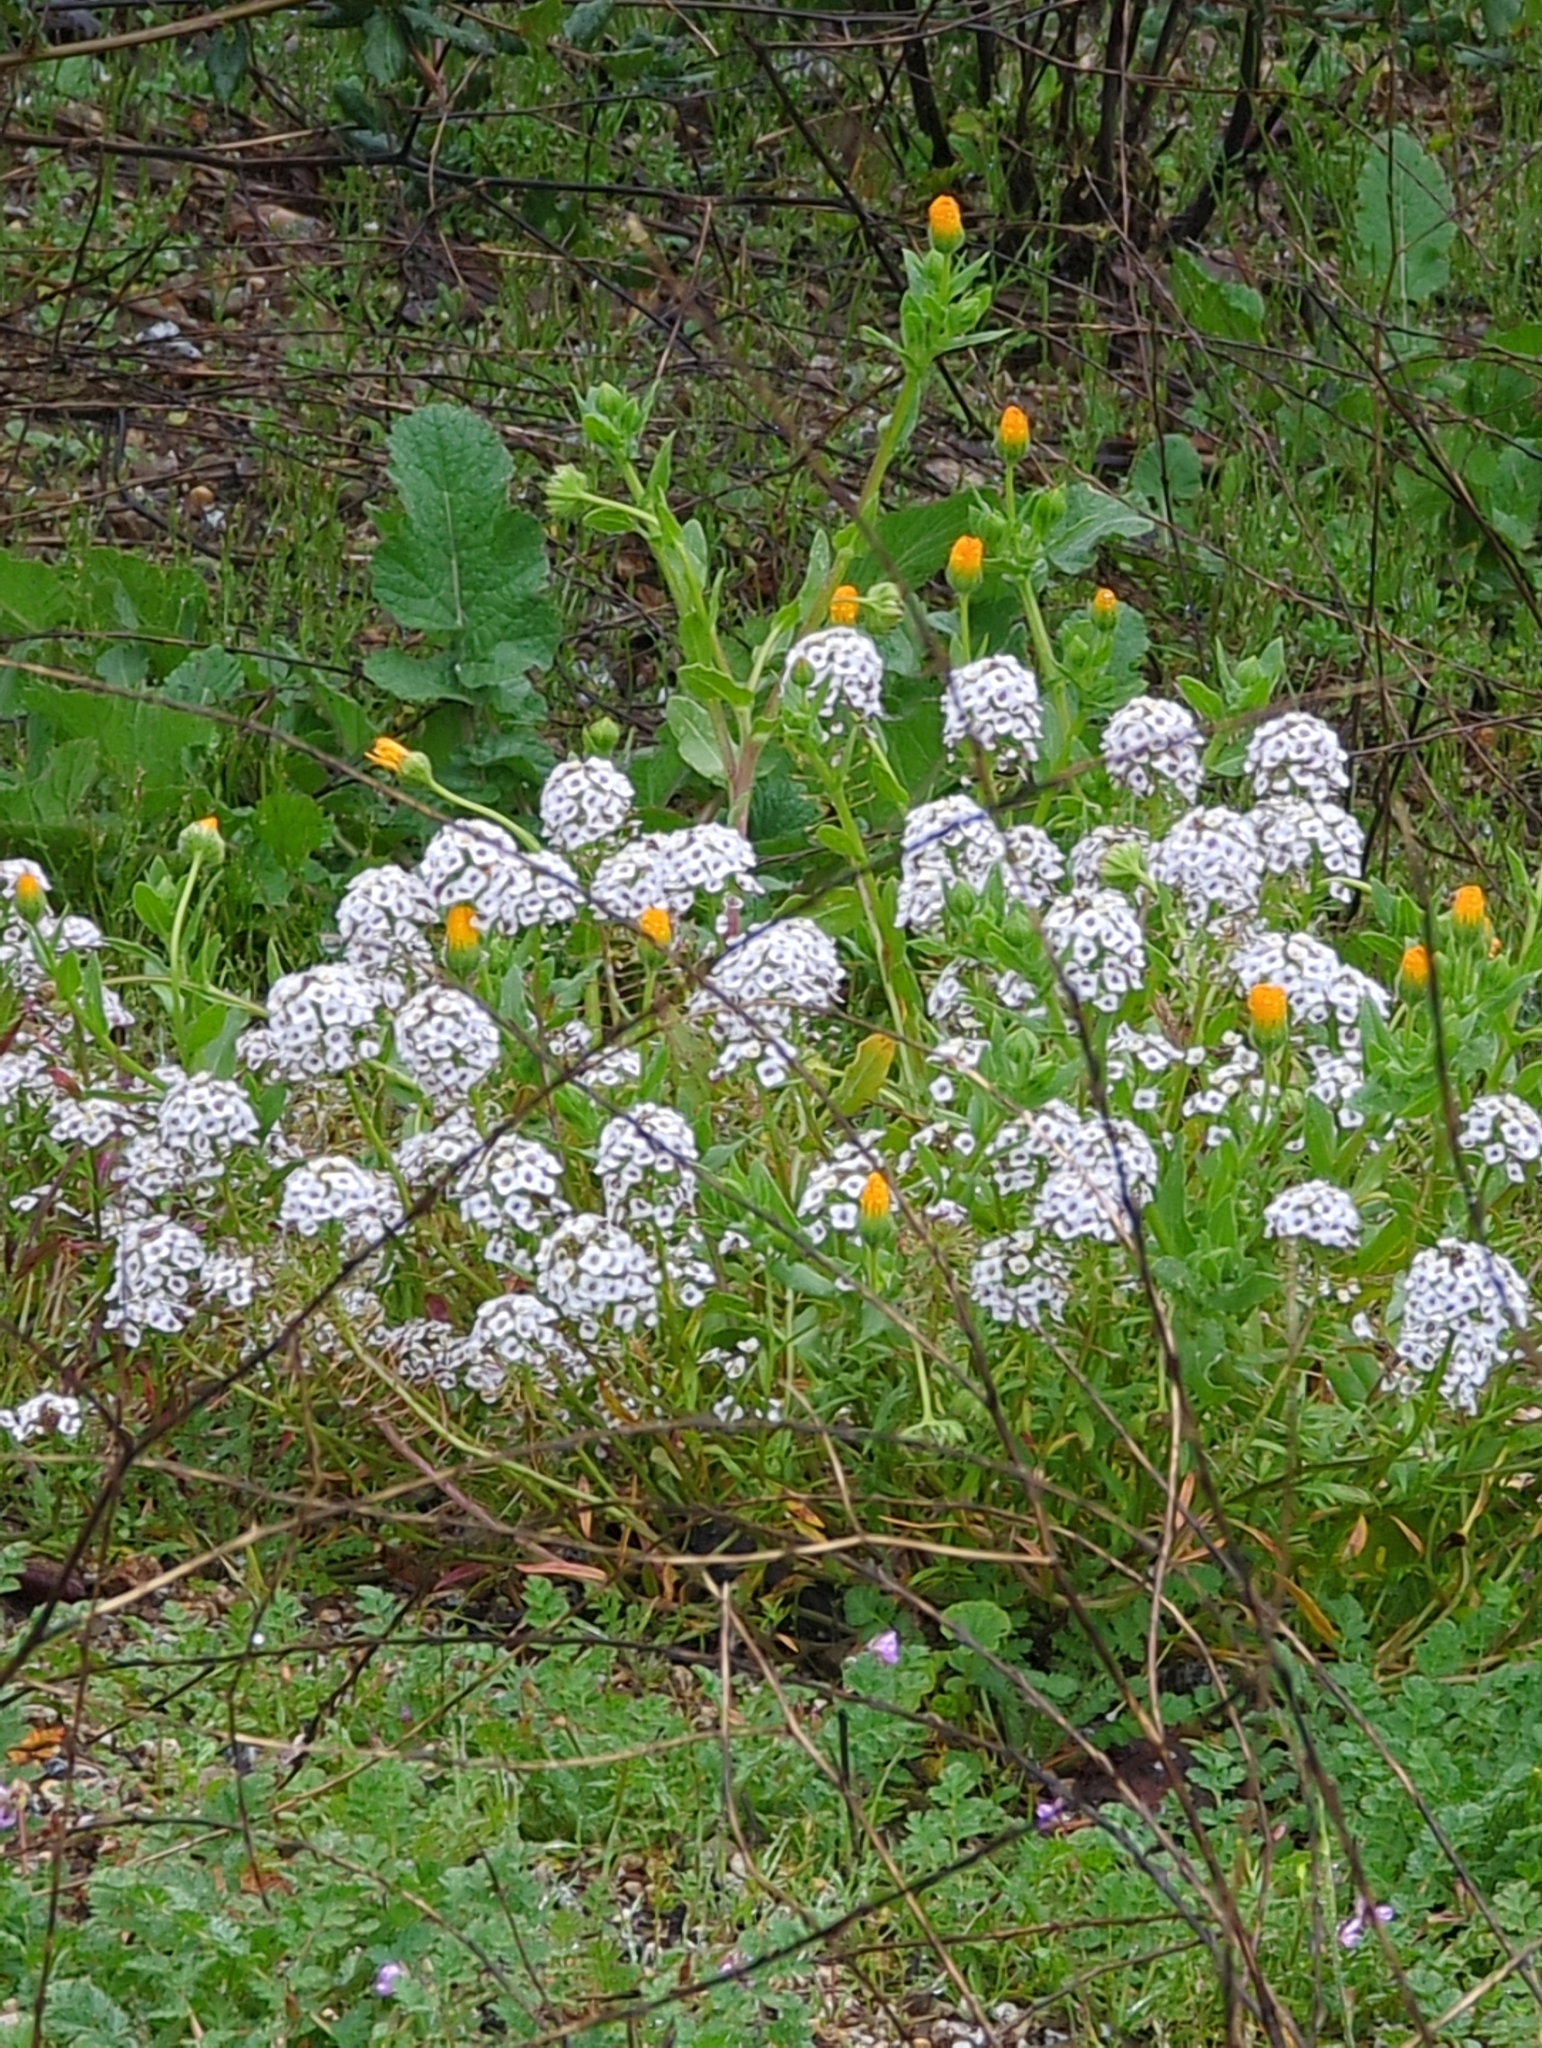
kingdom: Plantae
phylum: Tracheophyta
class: Magnoliopsida
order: Brassicales
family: Brassicaceae
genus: Lobularia
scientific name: Lobularia maritima
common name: Sweet alison
